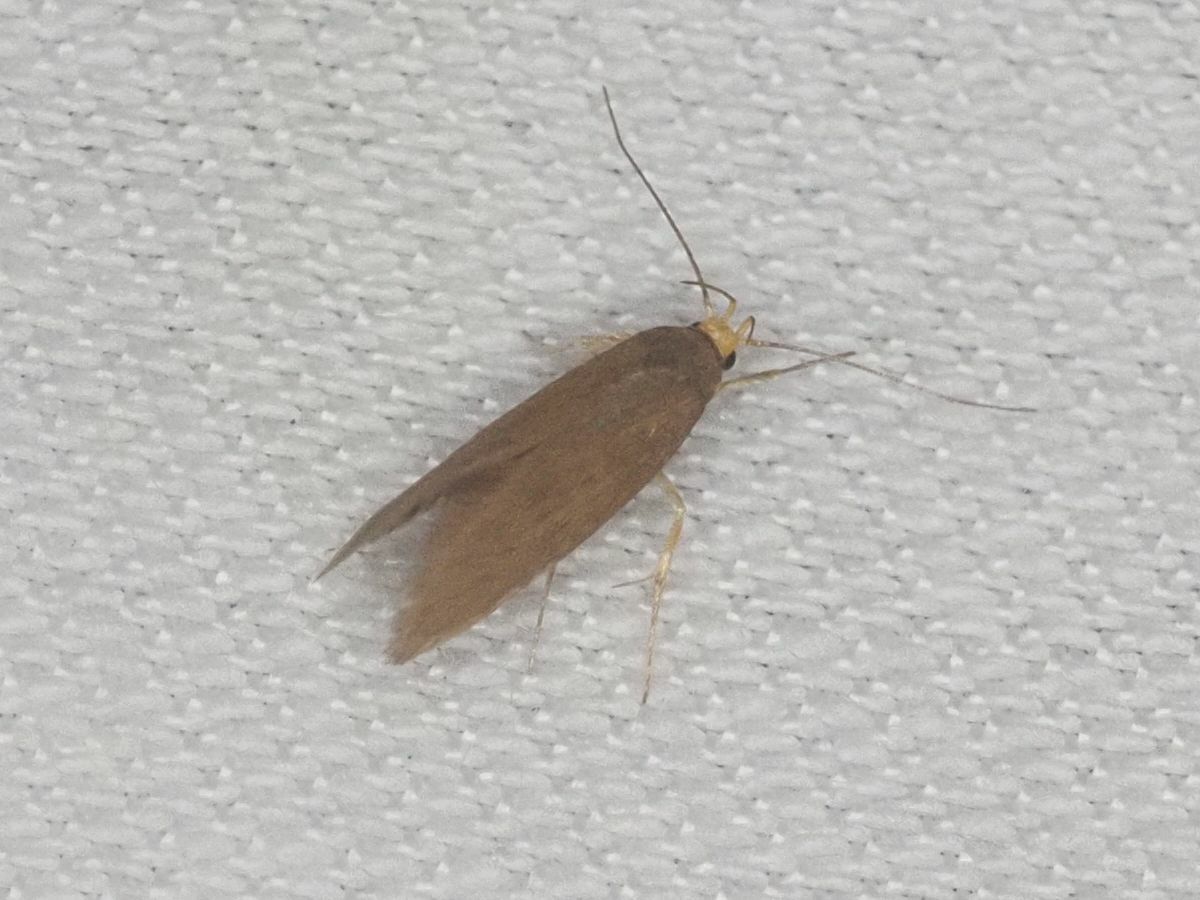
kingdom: Animalia
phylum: Arthropoda
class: Insecta
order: Lepidoptera
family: Oecophoridae
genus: Borkhausenia
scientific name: Borkhausenia Crassa unitella
